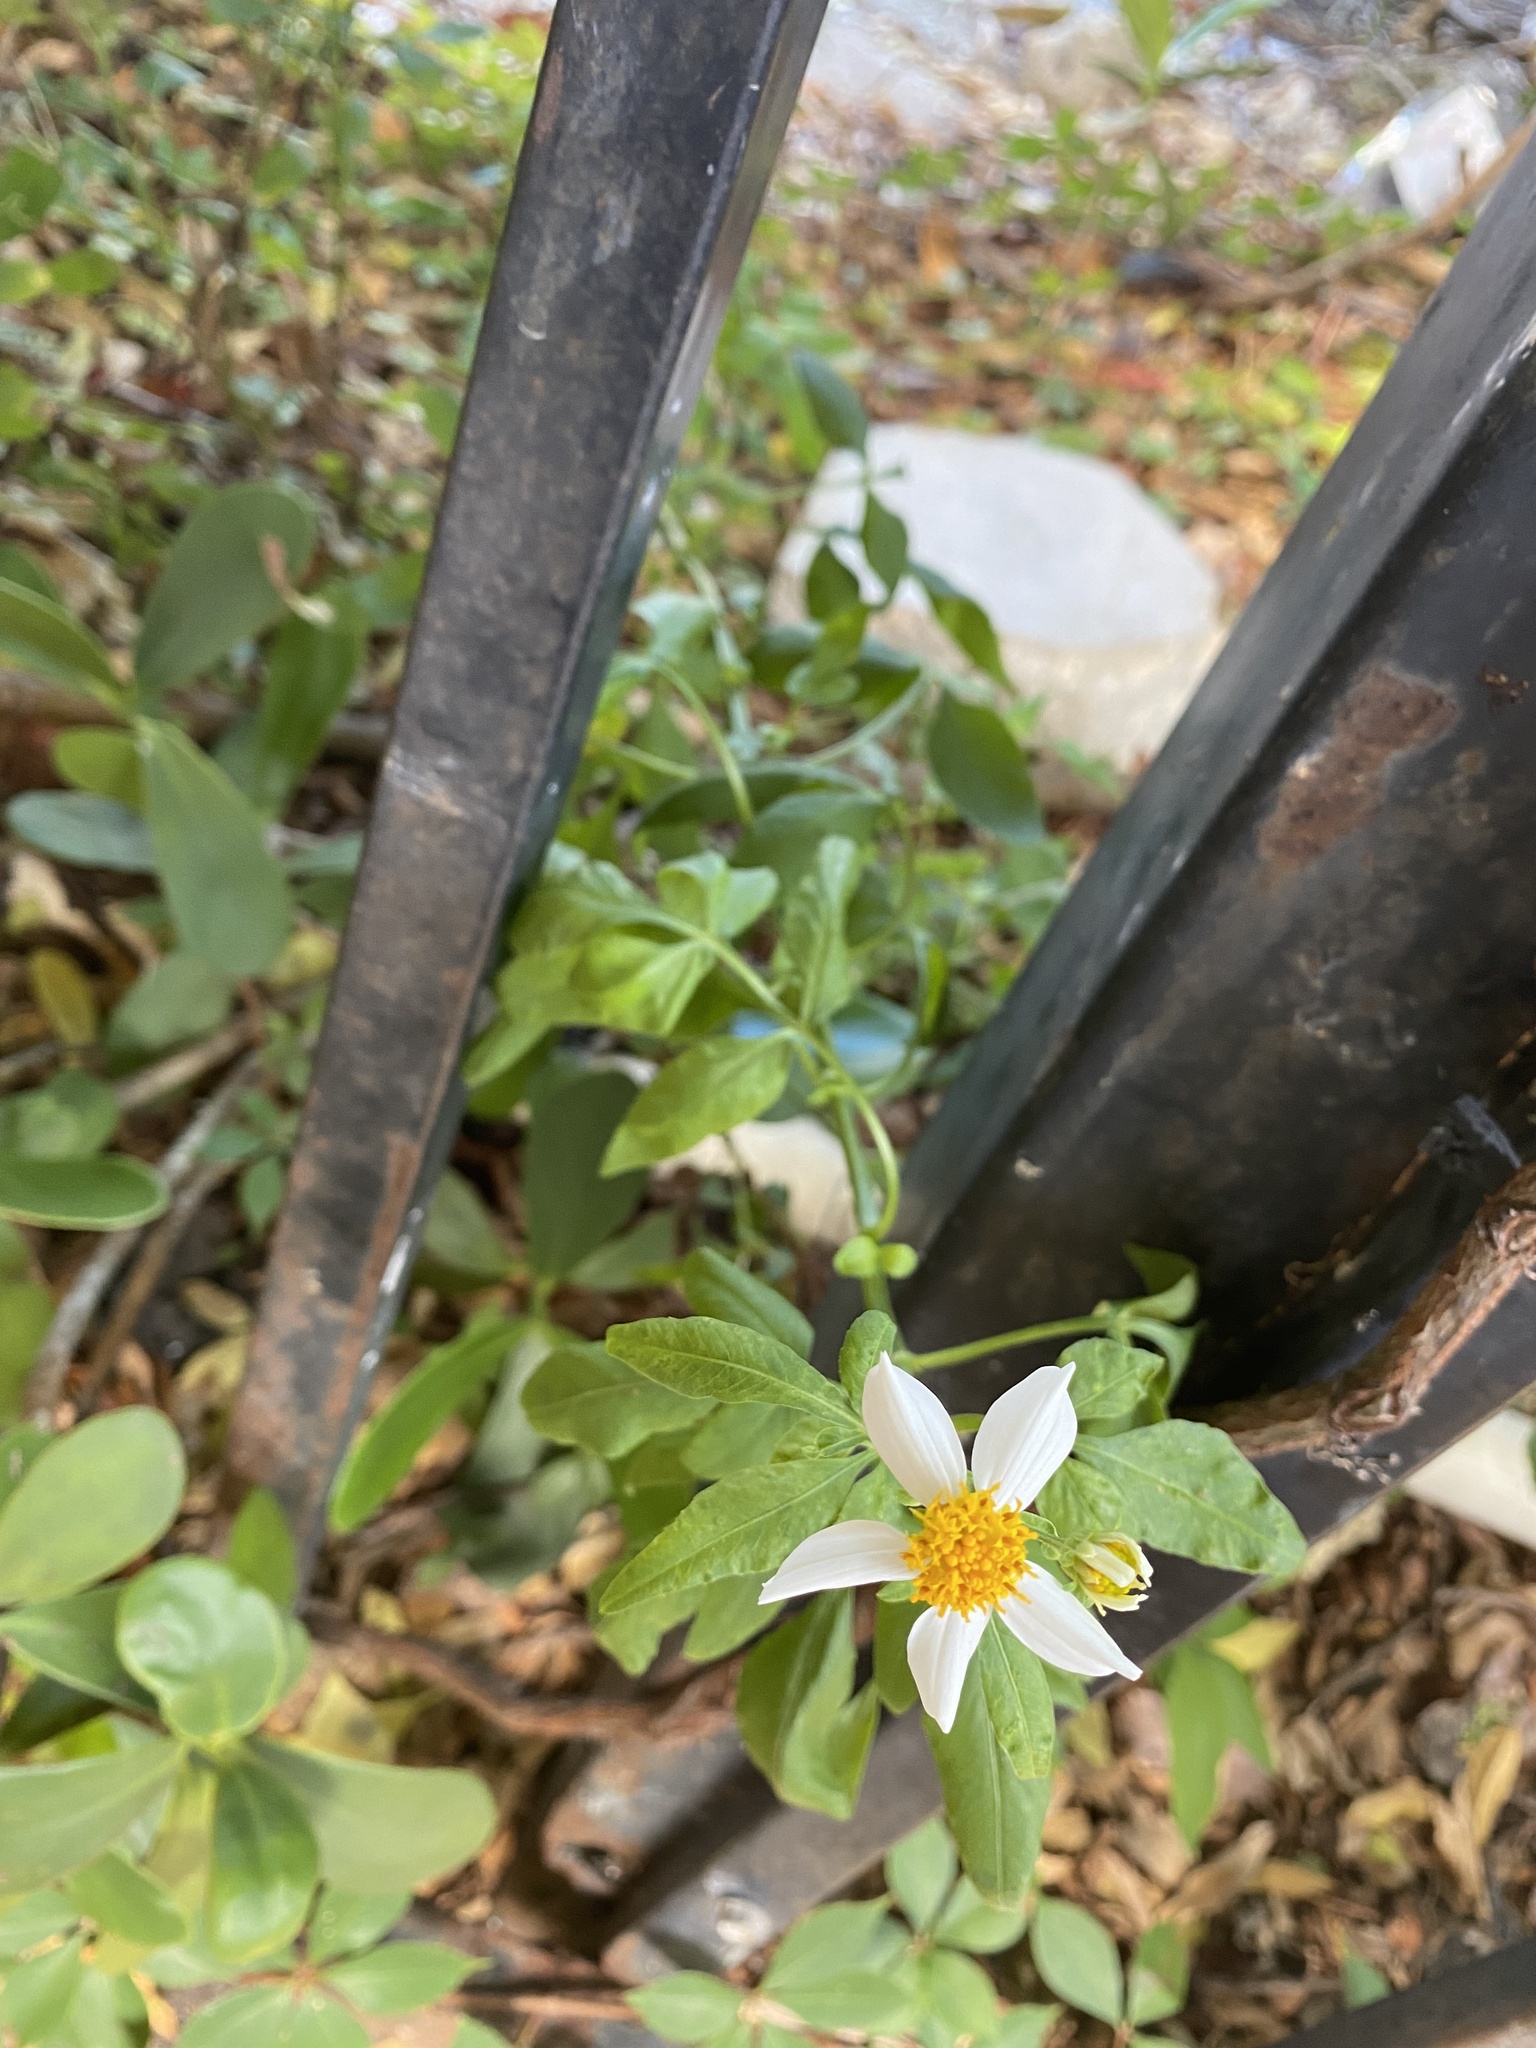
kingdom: Plantae
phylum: Tracheophyta
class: Magnoliopsida
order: Asterales
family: Asteraceae
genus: Bidens
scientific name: Bidens alba
